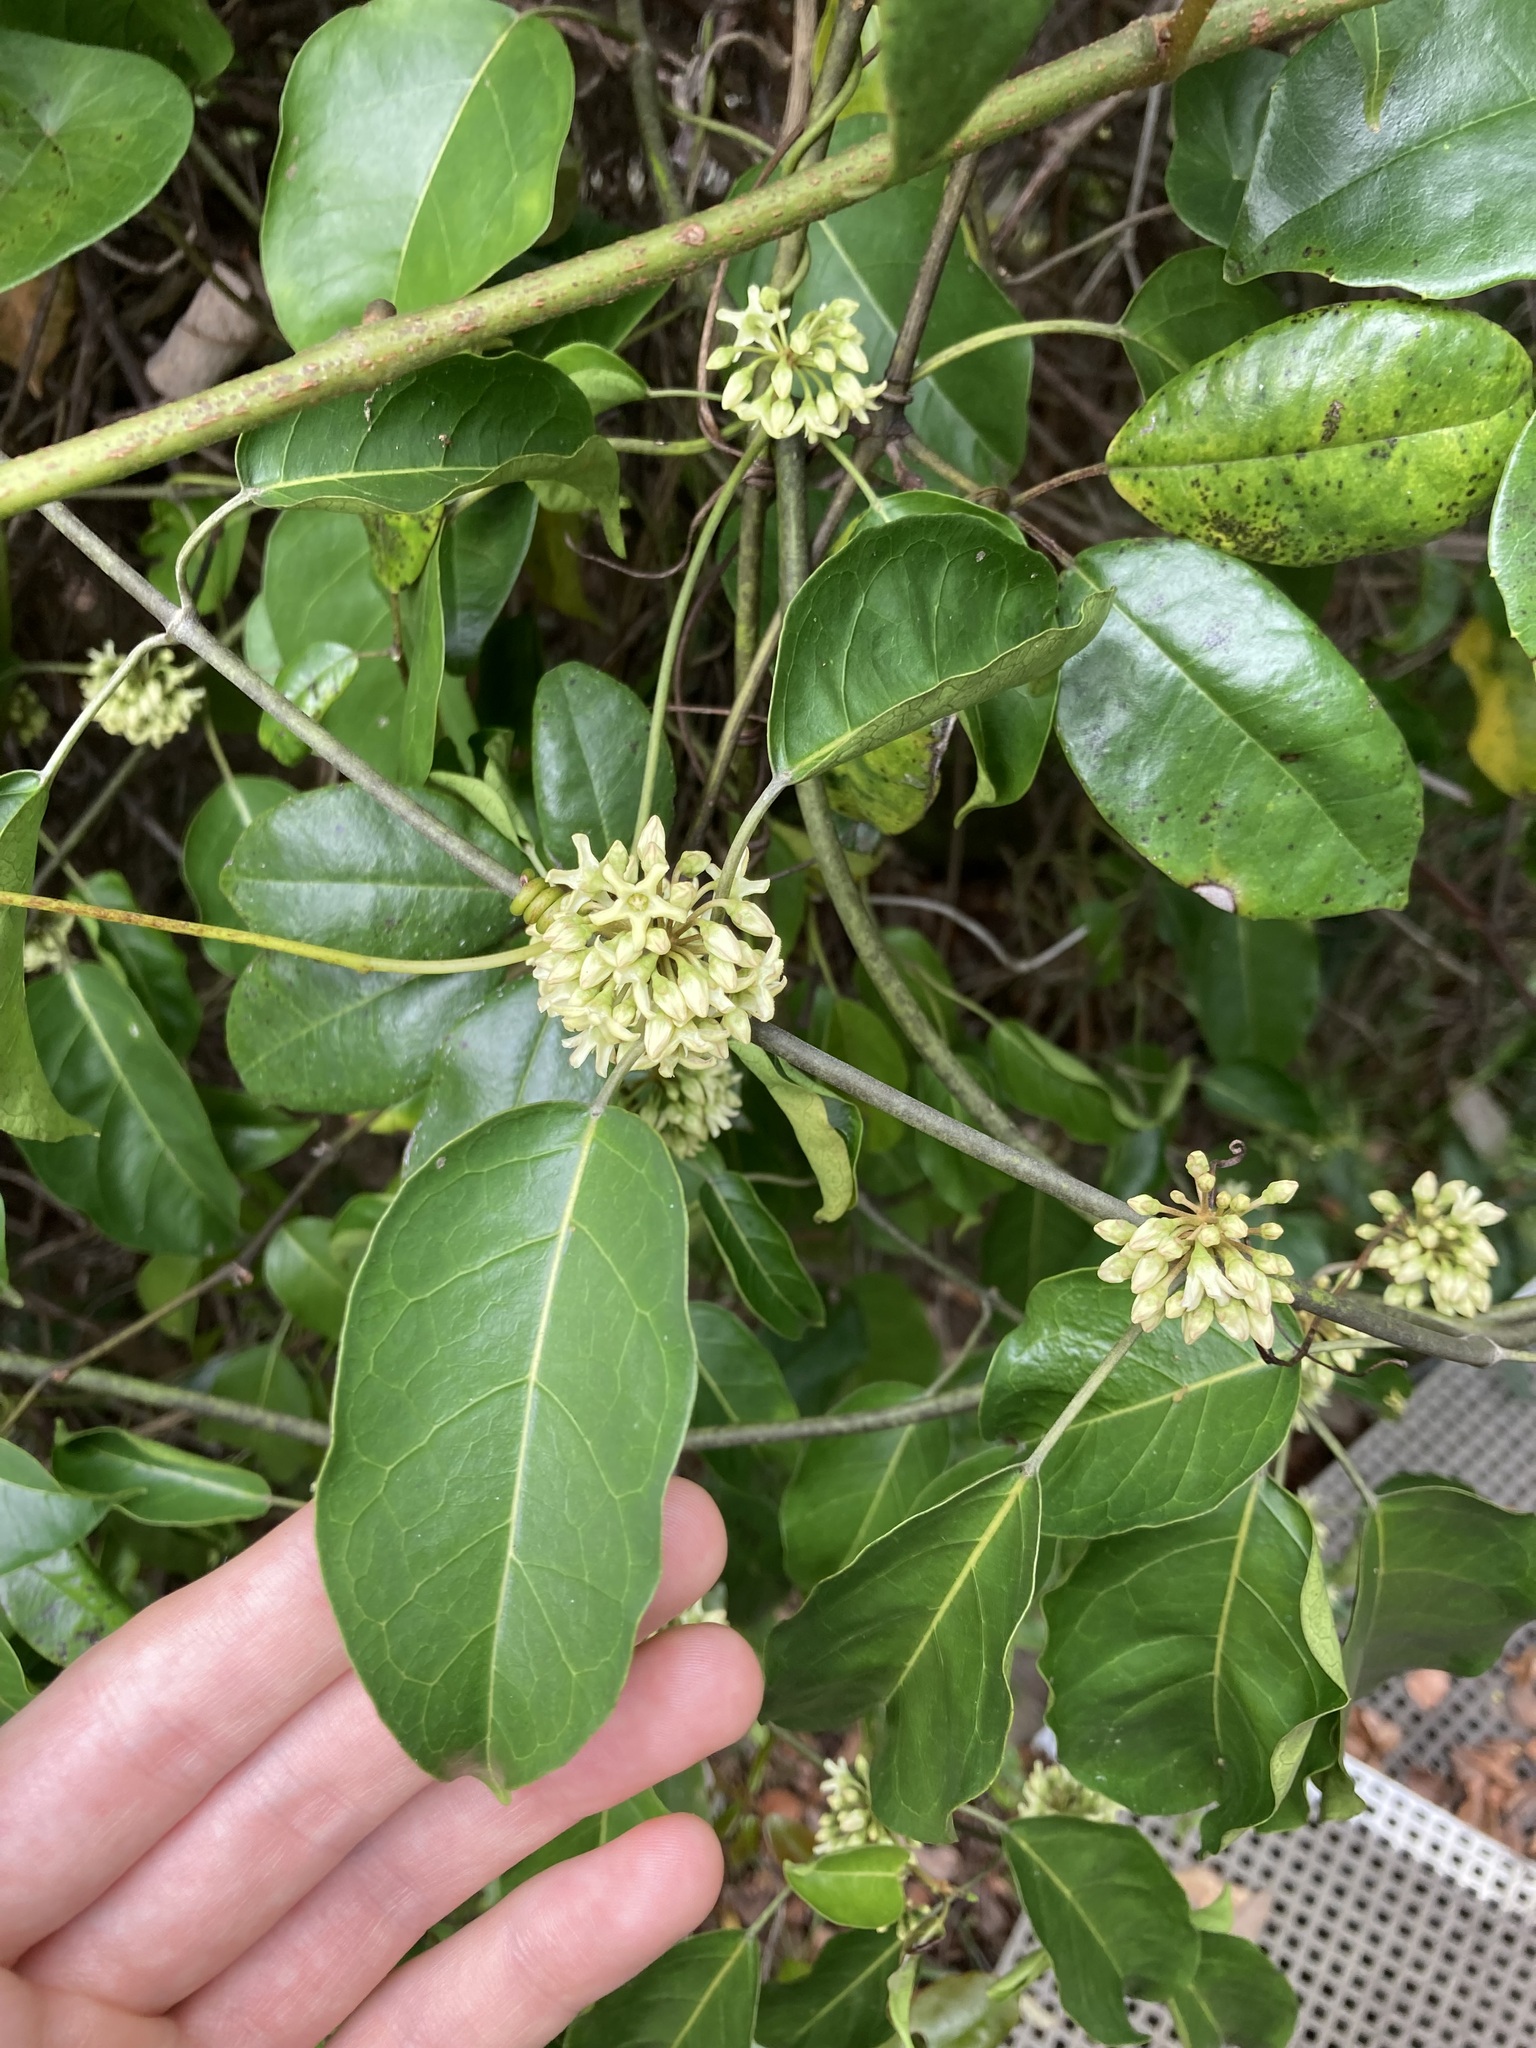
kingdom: Plantae
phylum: Tracheophyta
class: Magnoliopsida
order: Gentianales
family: Apocynaceae
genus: Leichhardtia
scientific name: Leichhardtia rostrata
